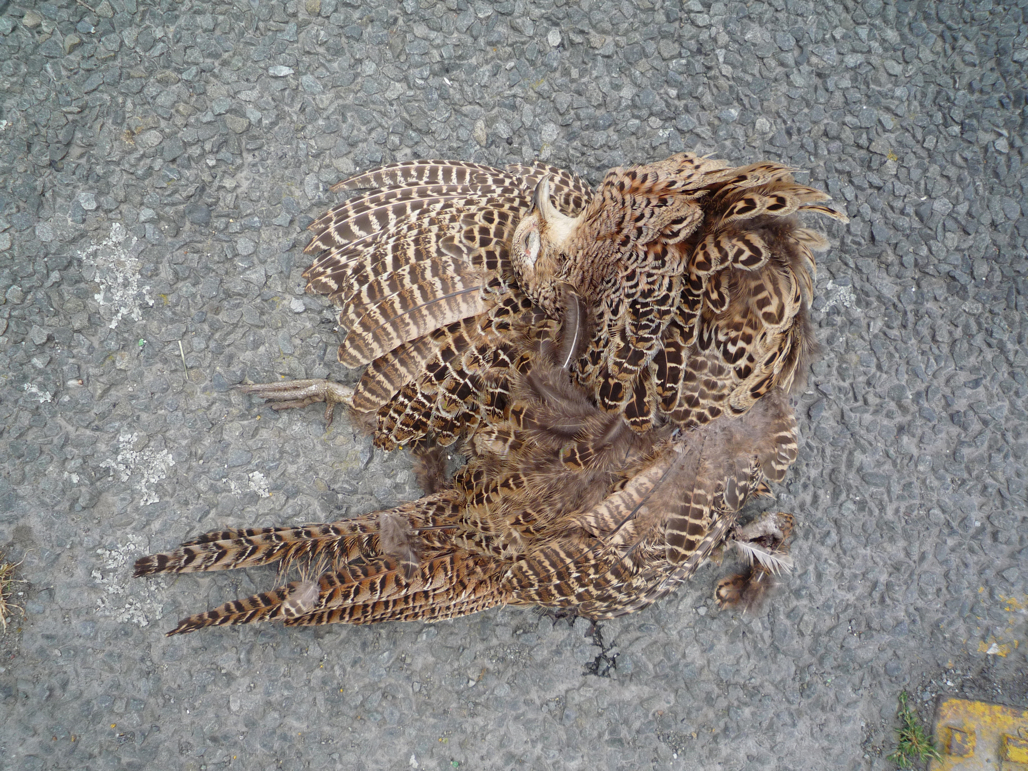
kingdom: Animalia
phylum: Chordata
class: Aves
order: Galliformes
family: Phasianidae
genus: Phasianus
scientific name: Phasianus colchicus
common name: Common pheasant
